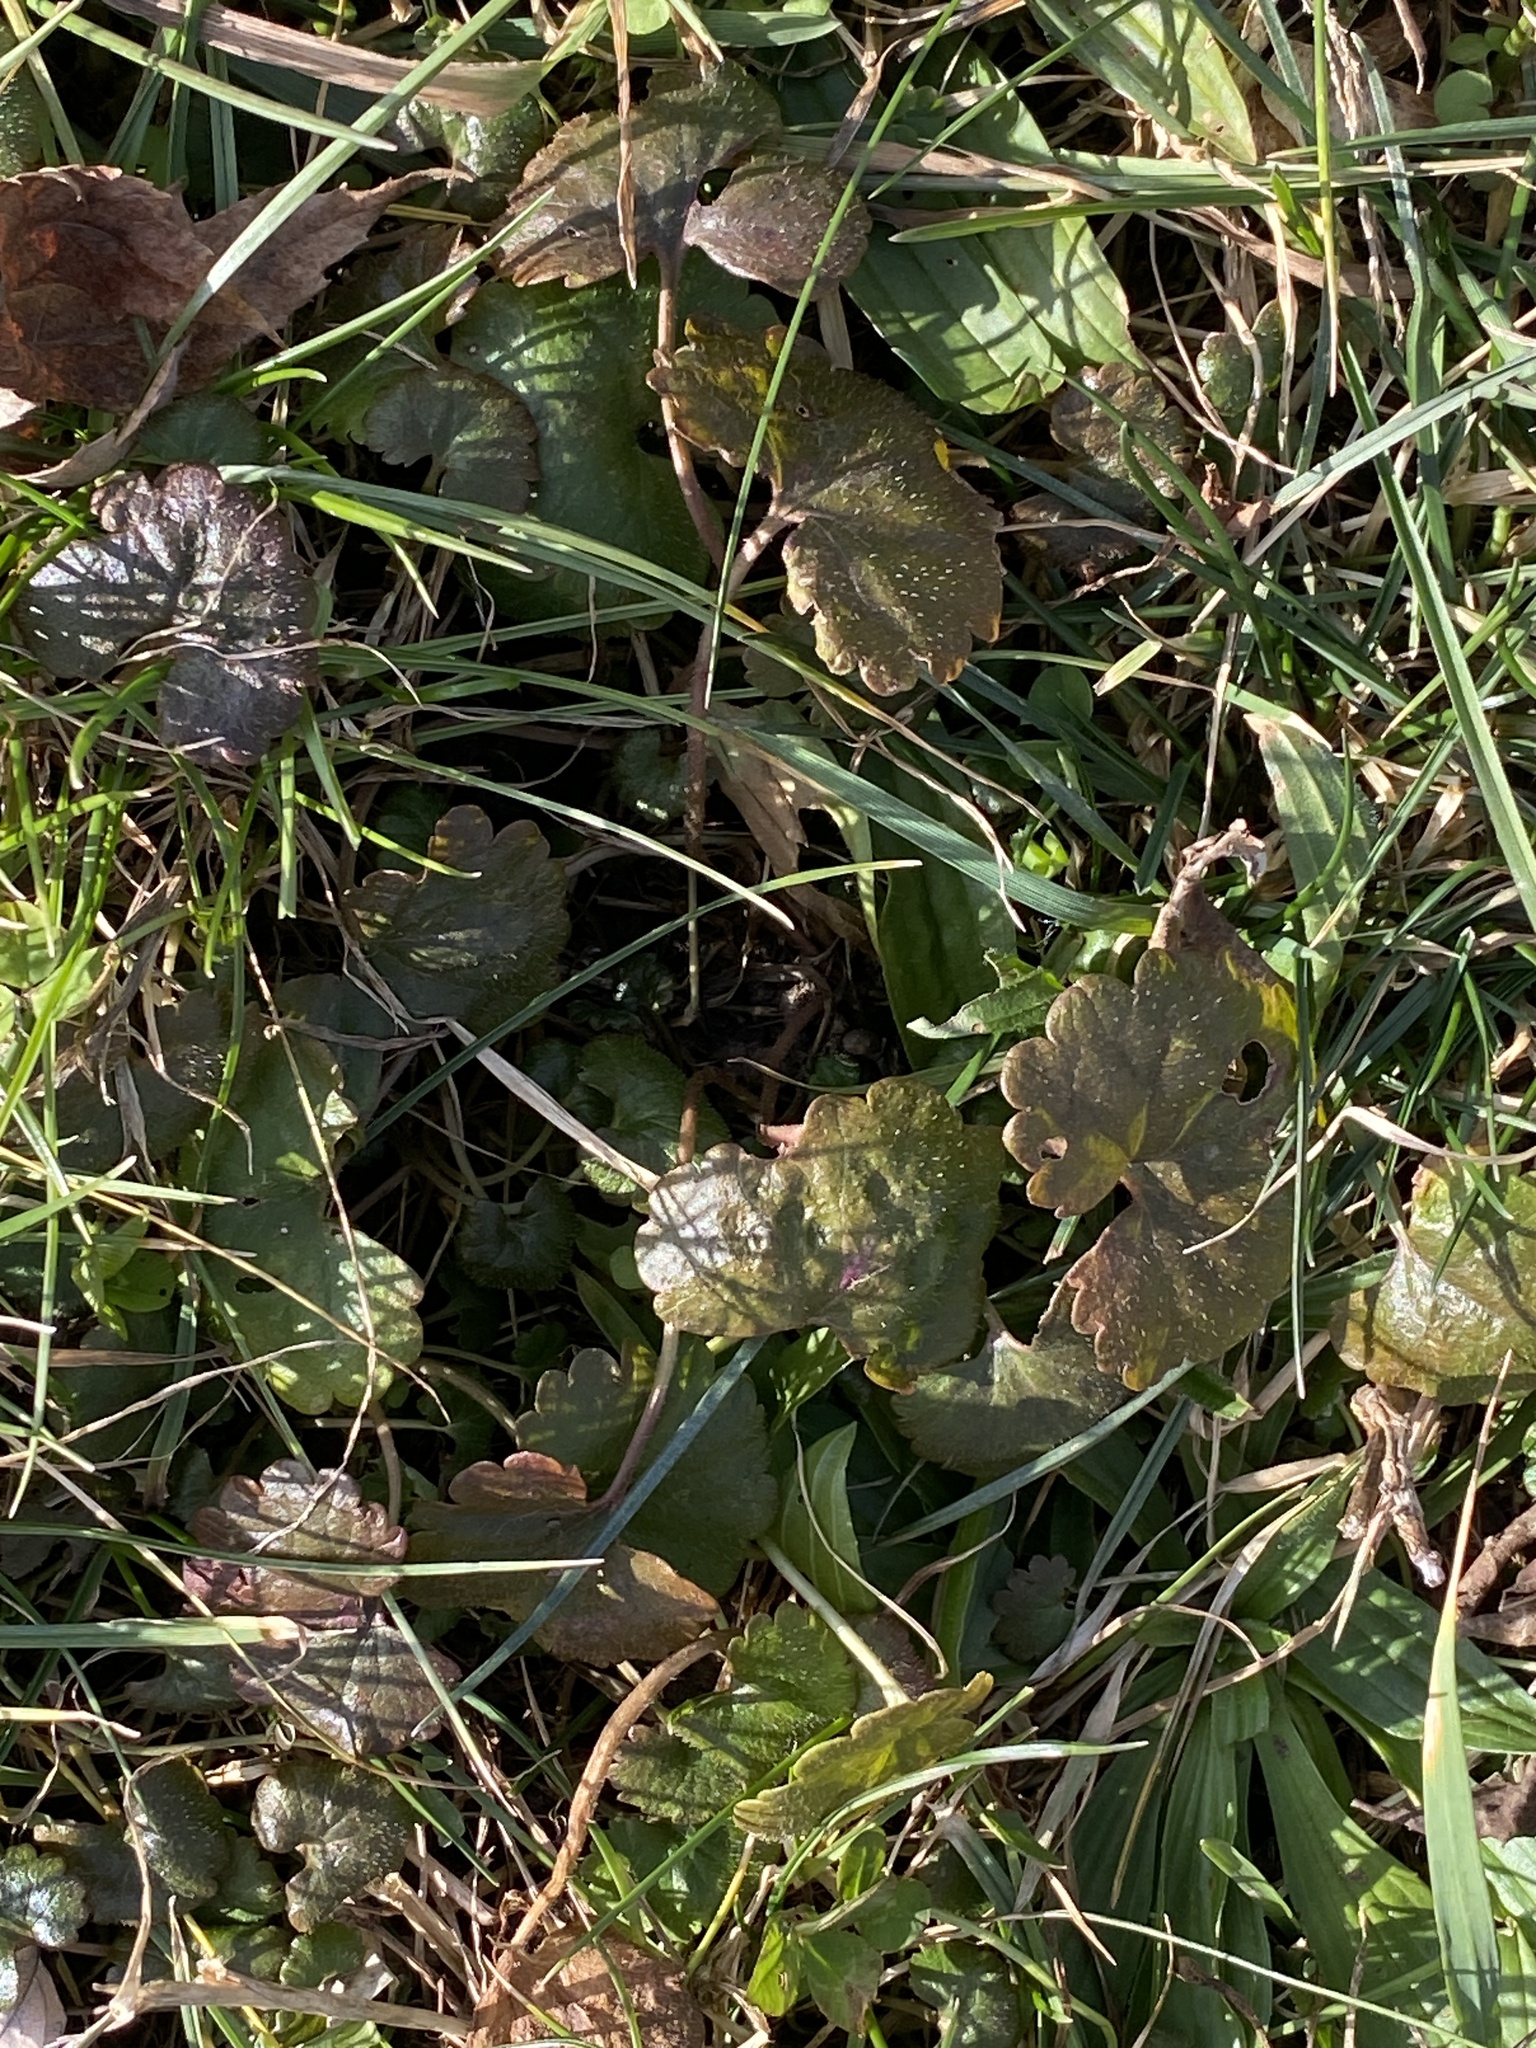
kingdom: Plantae
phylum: Tracheophyta
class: Magnoliopsida
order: Lamiales
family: Lamiaceae
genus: Glechoma
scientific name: Glechoma hederacea
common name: Ground ivy
